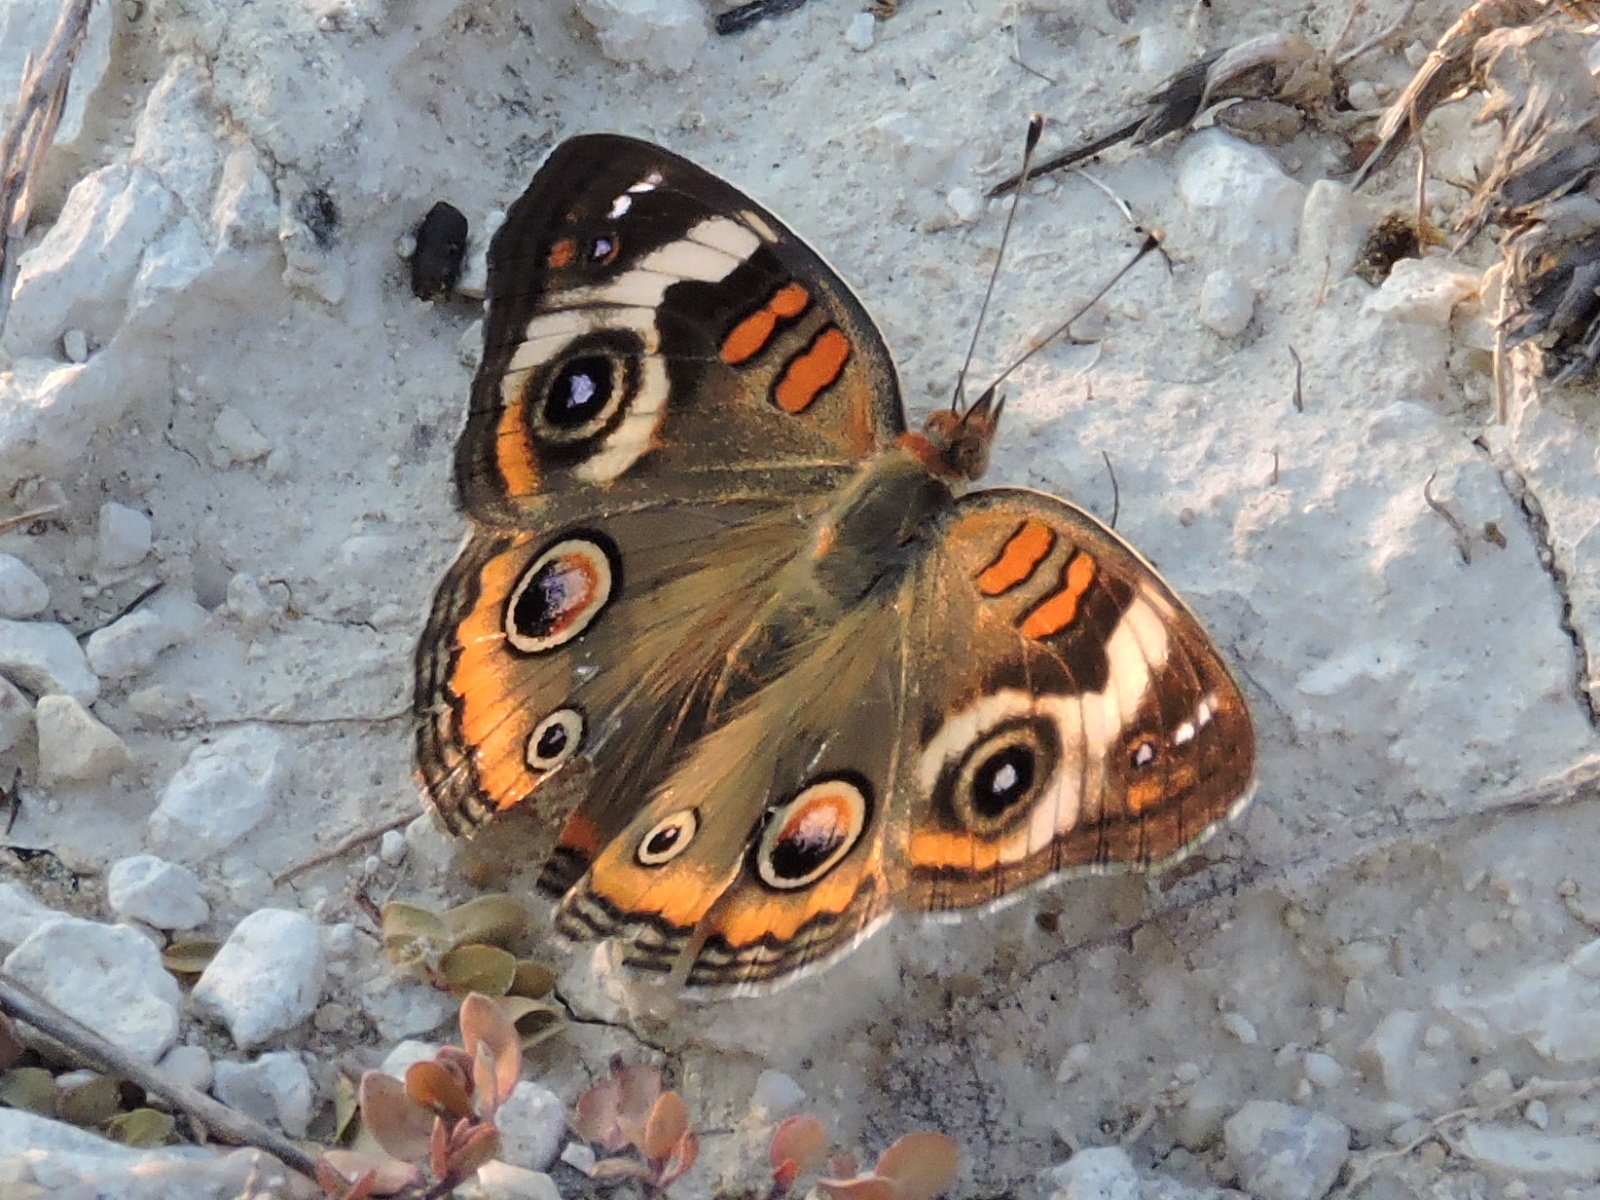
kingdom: Animalia
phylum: Arthropoda
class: Insecta
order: Lepidoptera
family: Nymphalidae
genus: Junonia
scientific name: Junonia coenia
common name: Common buckeye
